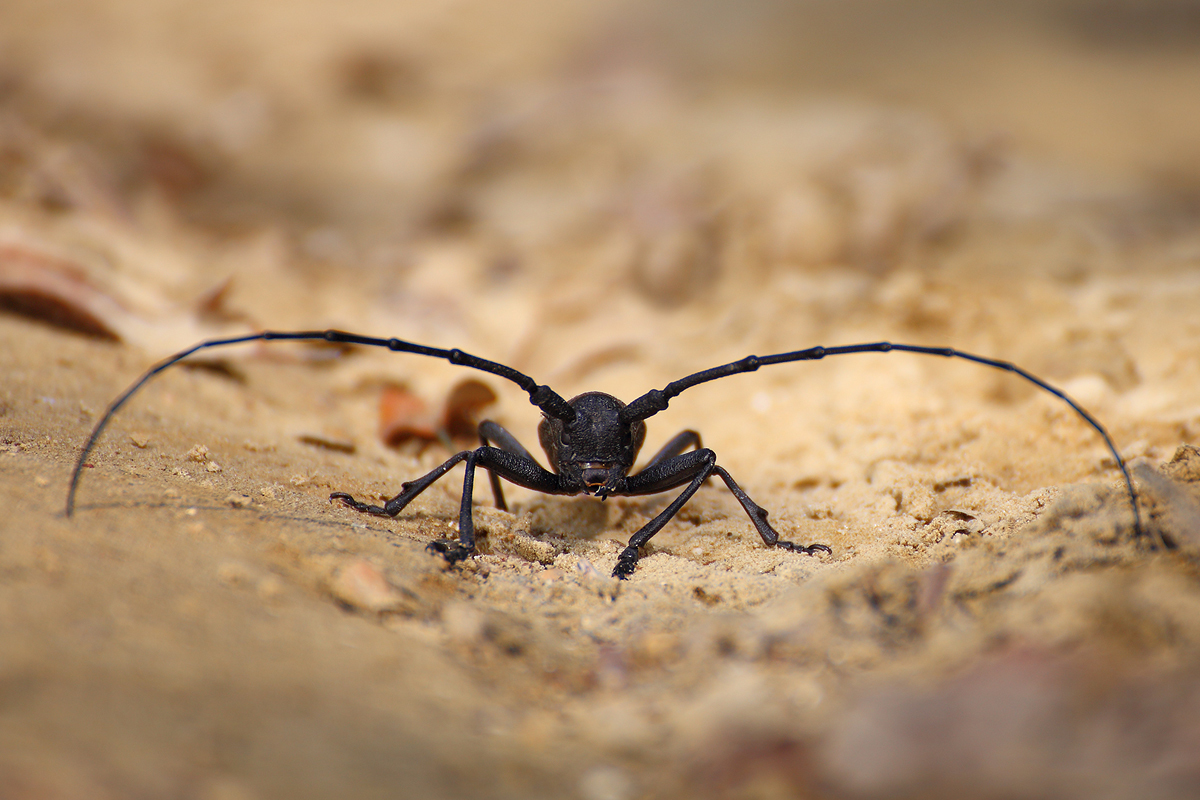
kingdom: Animalia
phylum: Arthropoda
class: Insecta
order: Coleoptera
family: Cerambycidae
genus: Morimus
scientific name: Morimus asper
